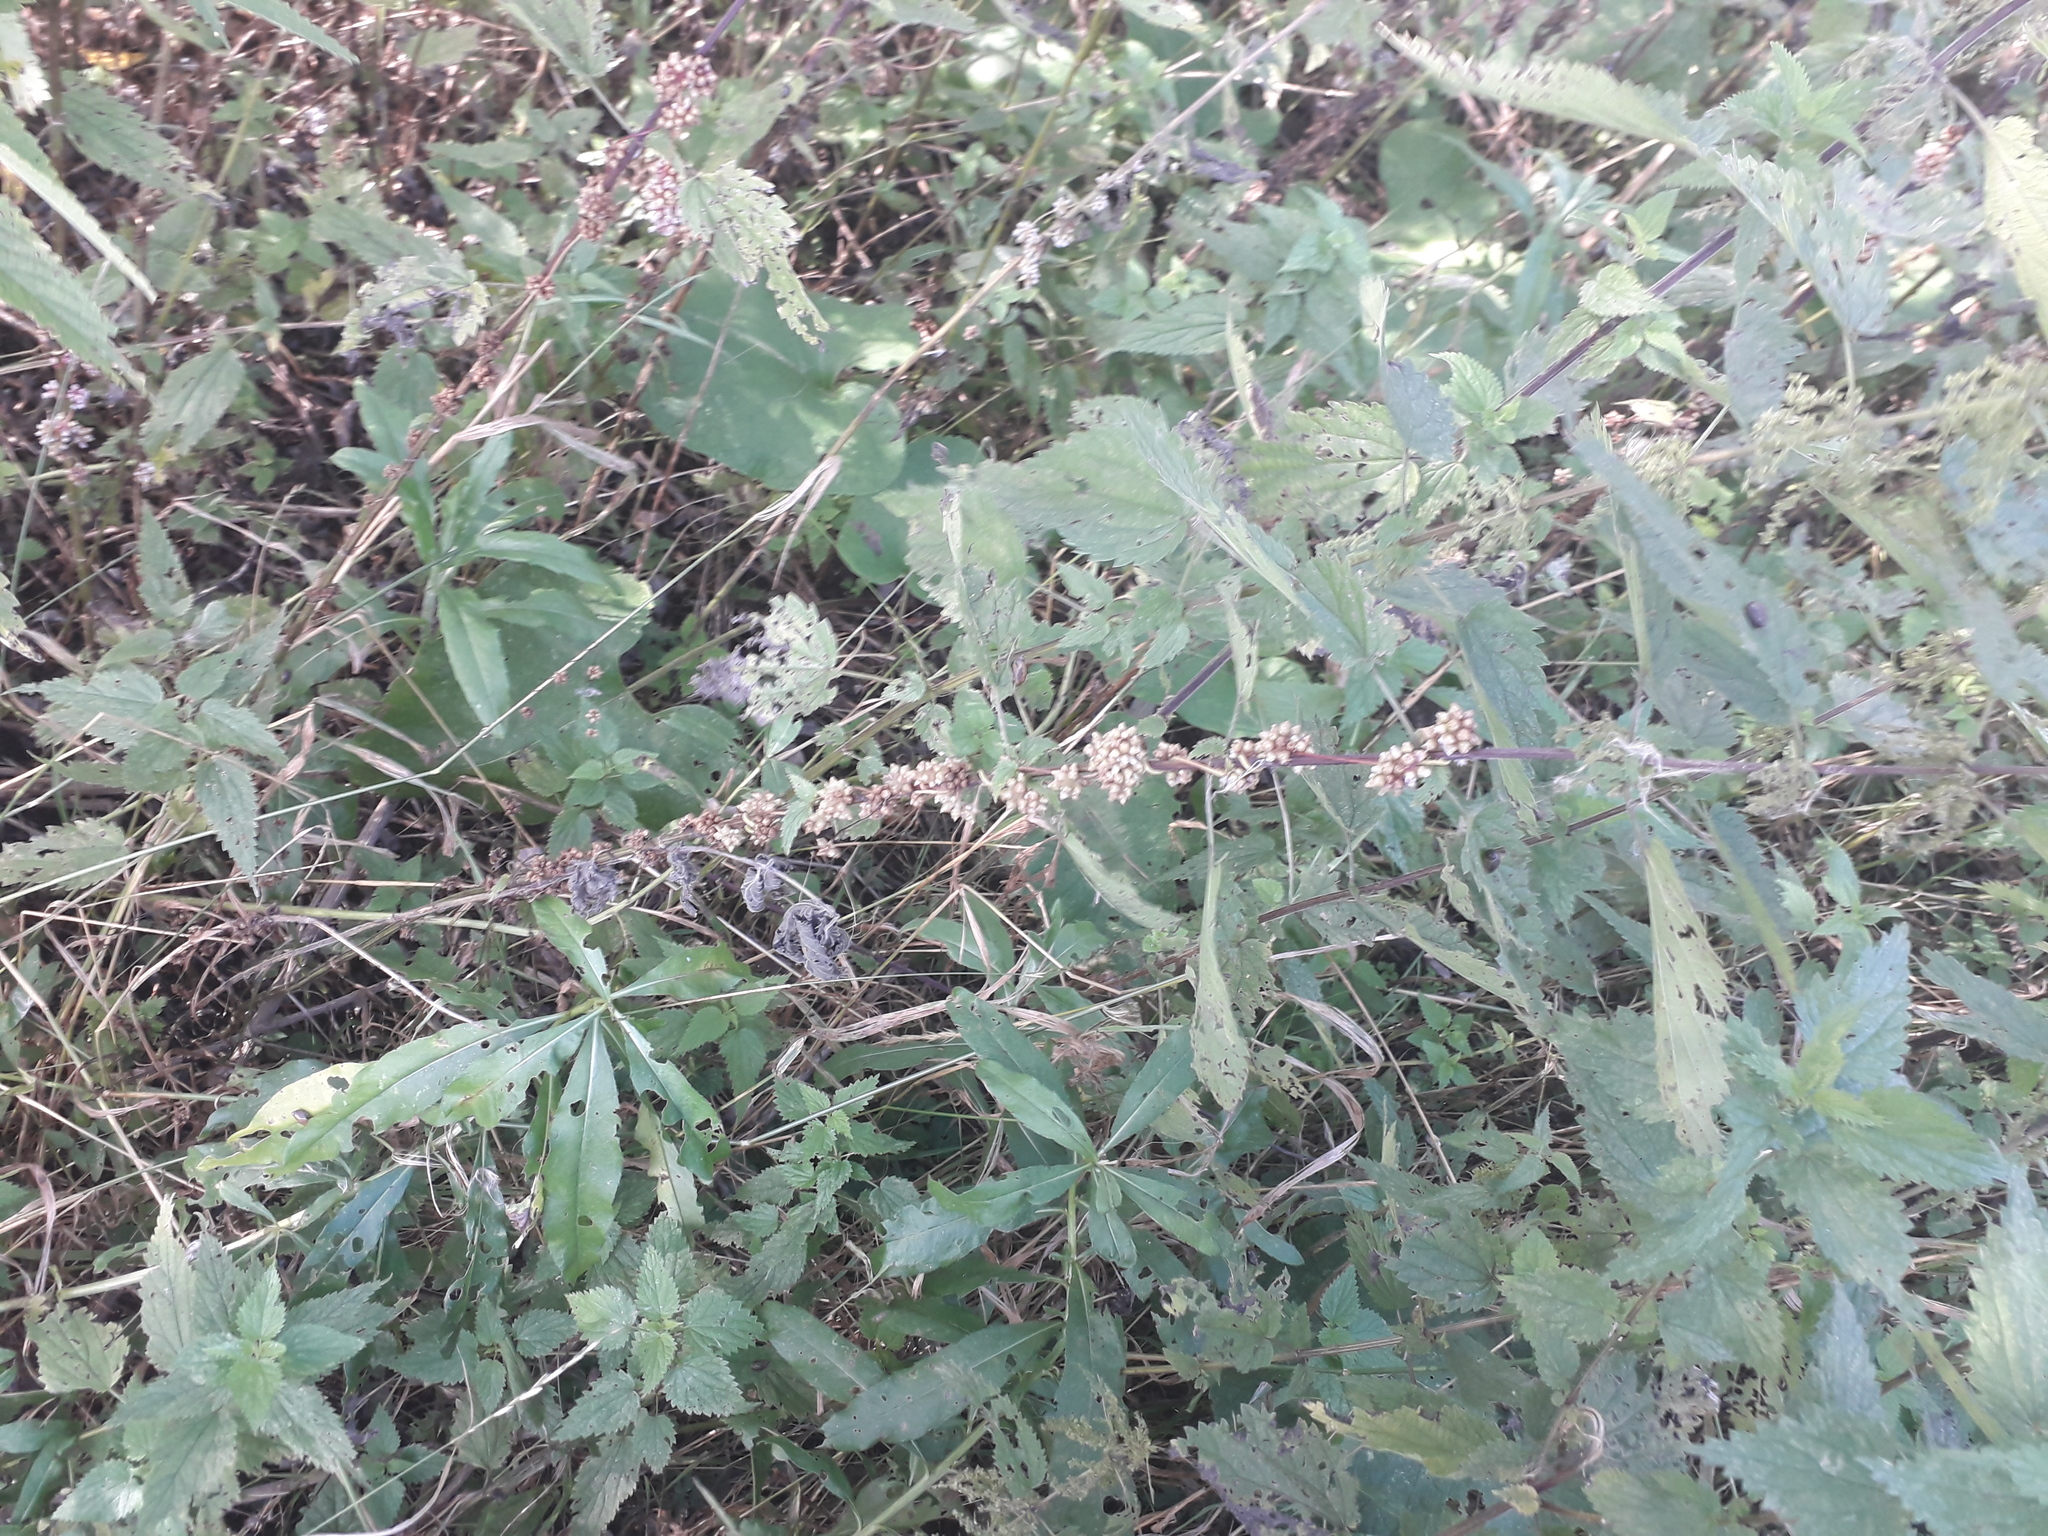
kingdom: Plantae
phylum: Tracheophyta
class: Magnoliopsida
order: Solanales
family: Convolvulaceae
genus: Cuscuta
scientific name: Cuscuta europaea
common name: Greater dodder
